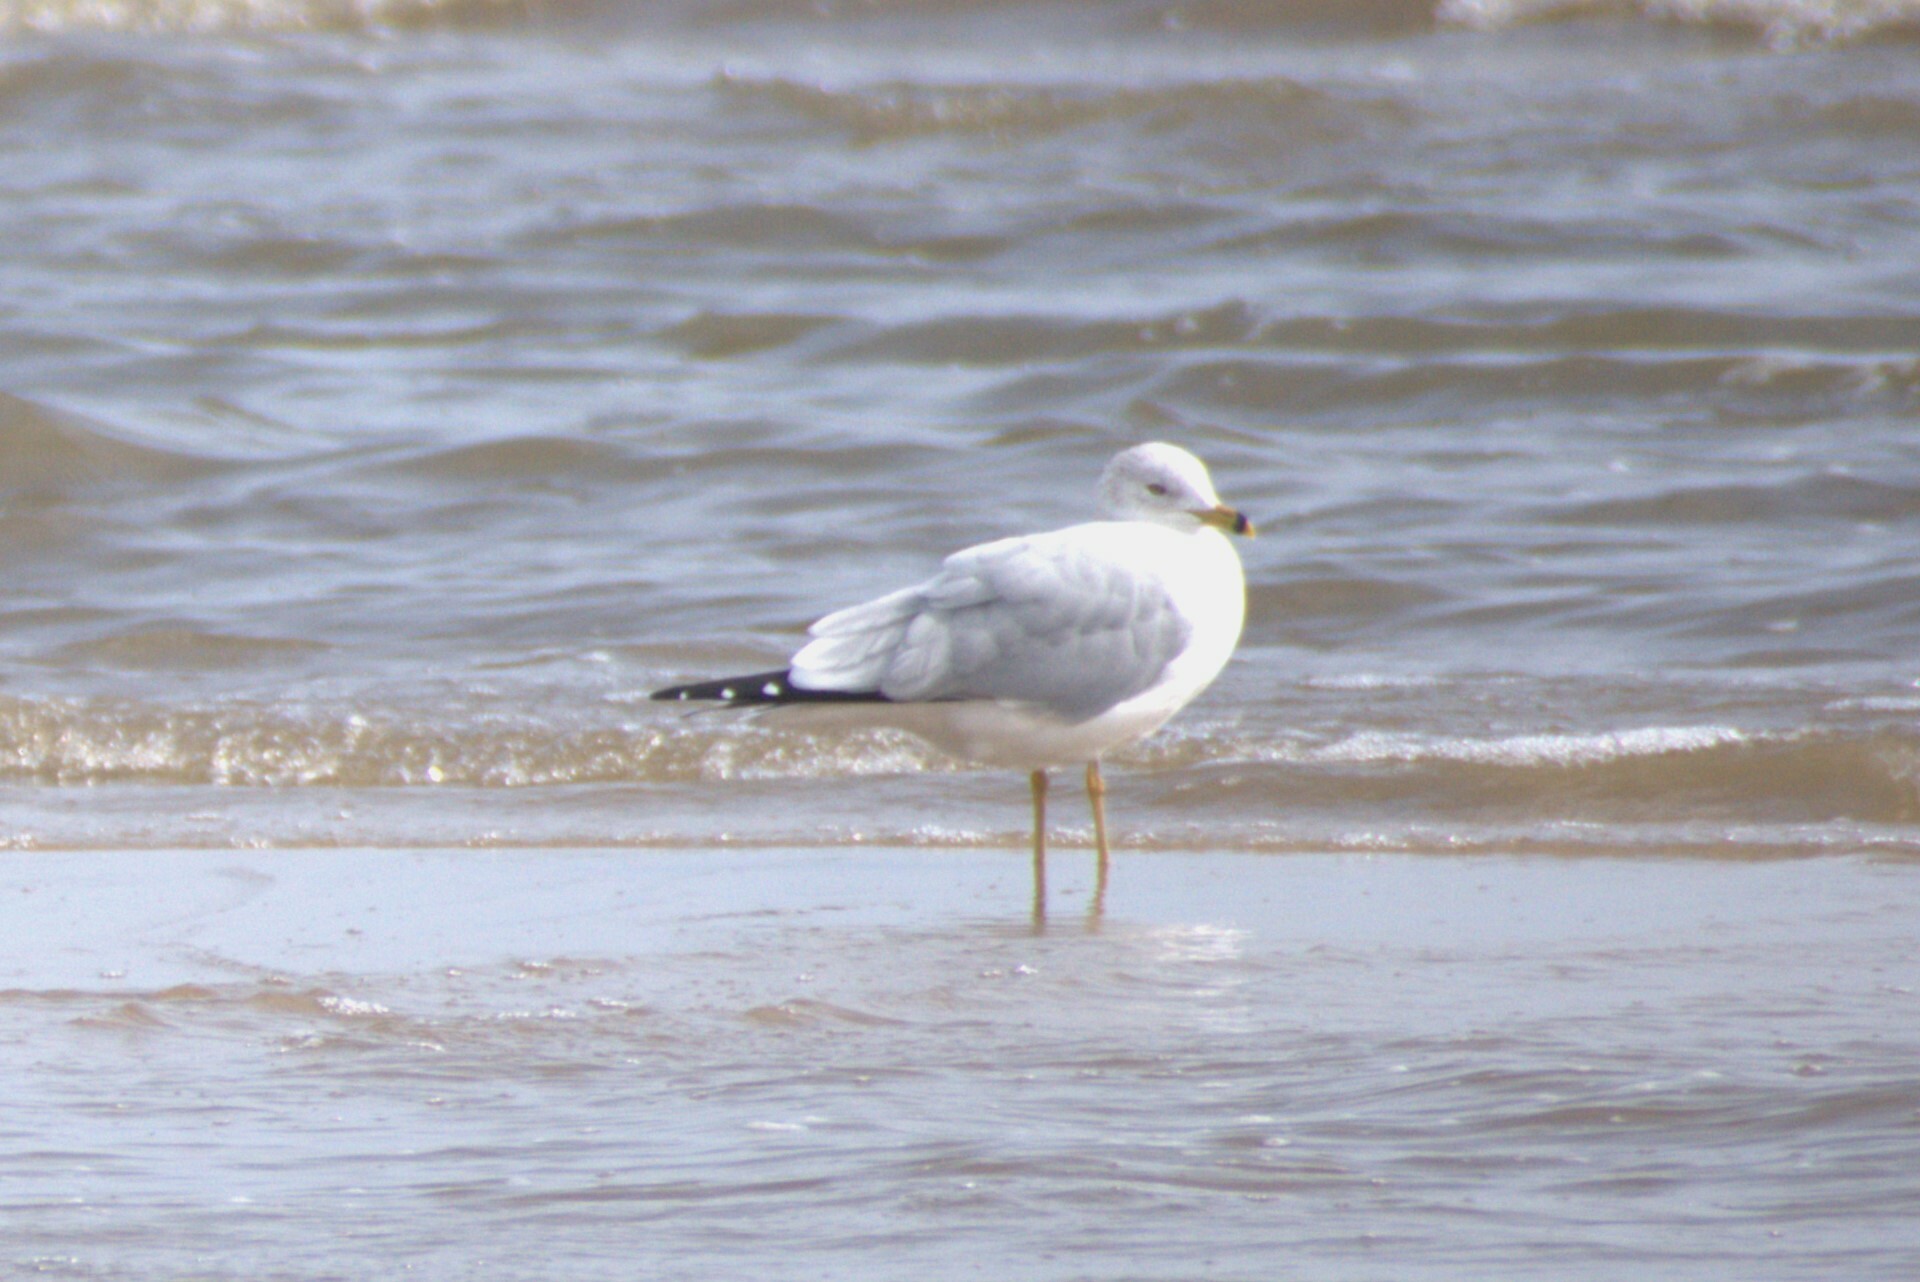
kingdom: Animalia
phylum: Chordata
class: Aves
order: Charadriiformes
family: Laridae
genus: Larus
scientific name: Larus delawarensis
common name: Ring-billed gull
